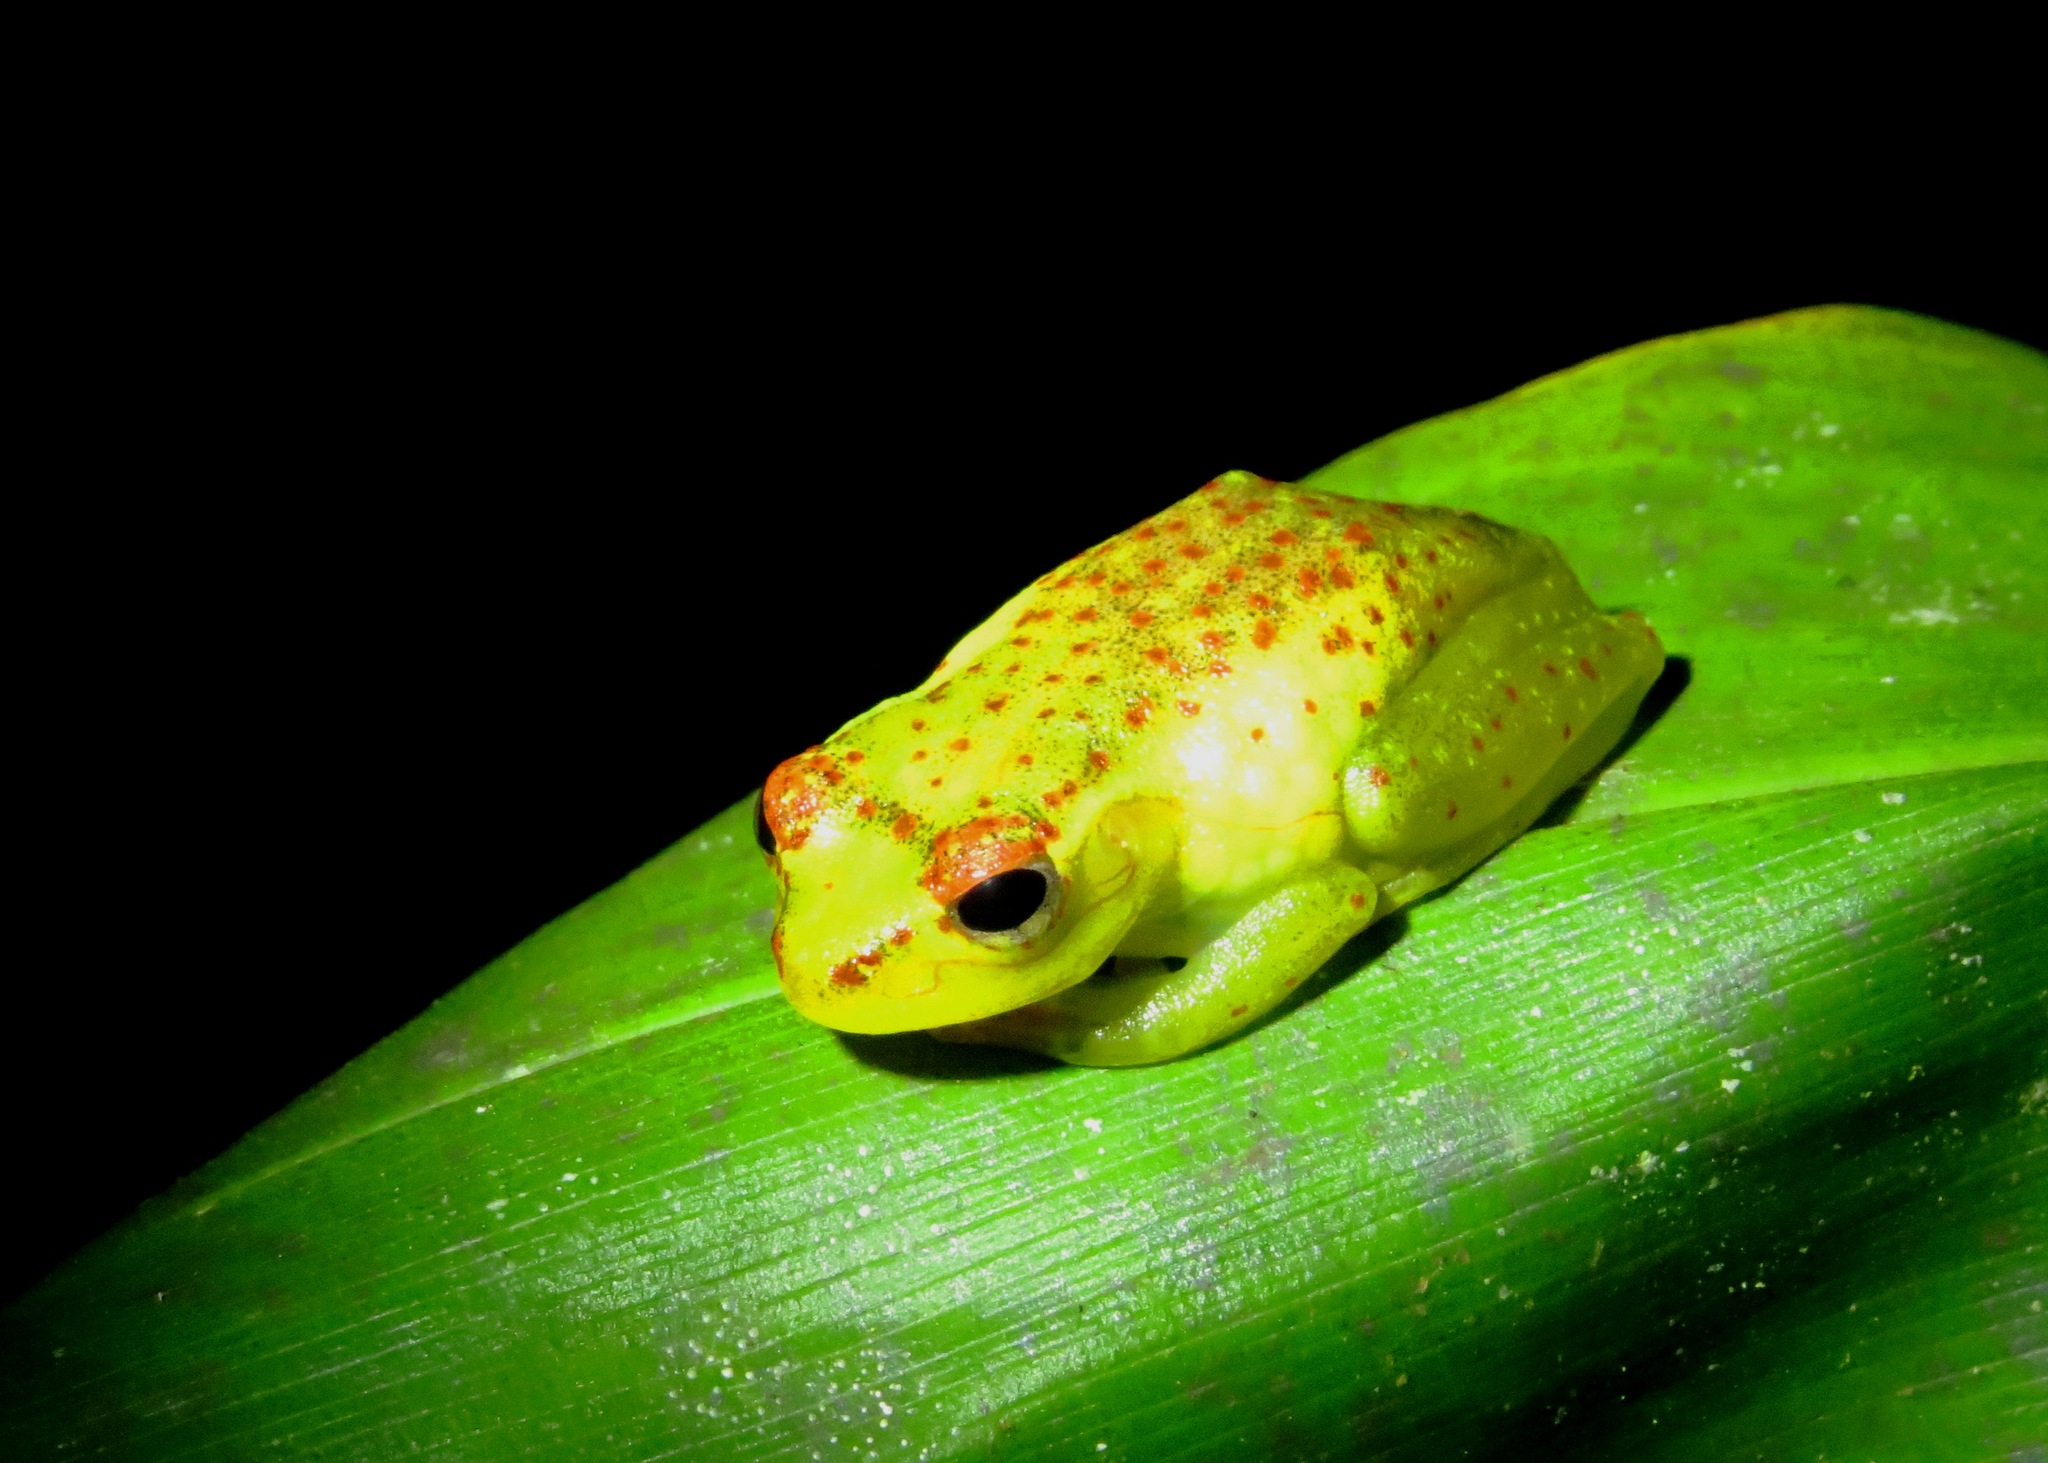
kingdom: Animalia
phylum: Chordata
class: Amphibia
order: Anura
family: Mantellidae
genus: Boophis
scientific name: Boophis tasymena
